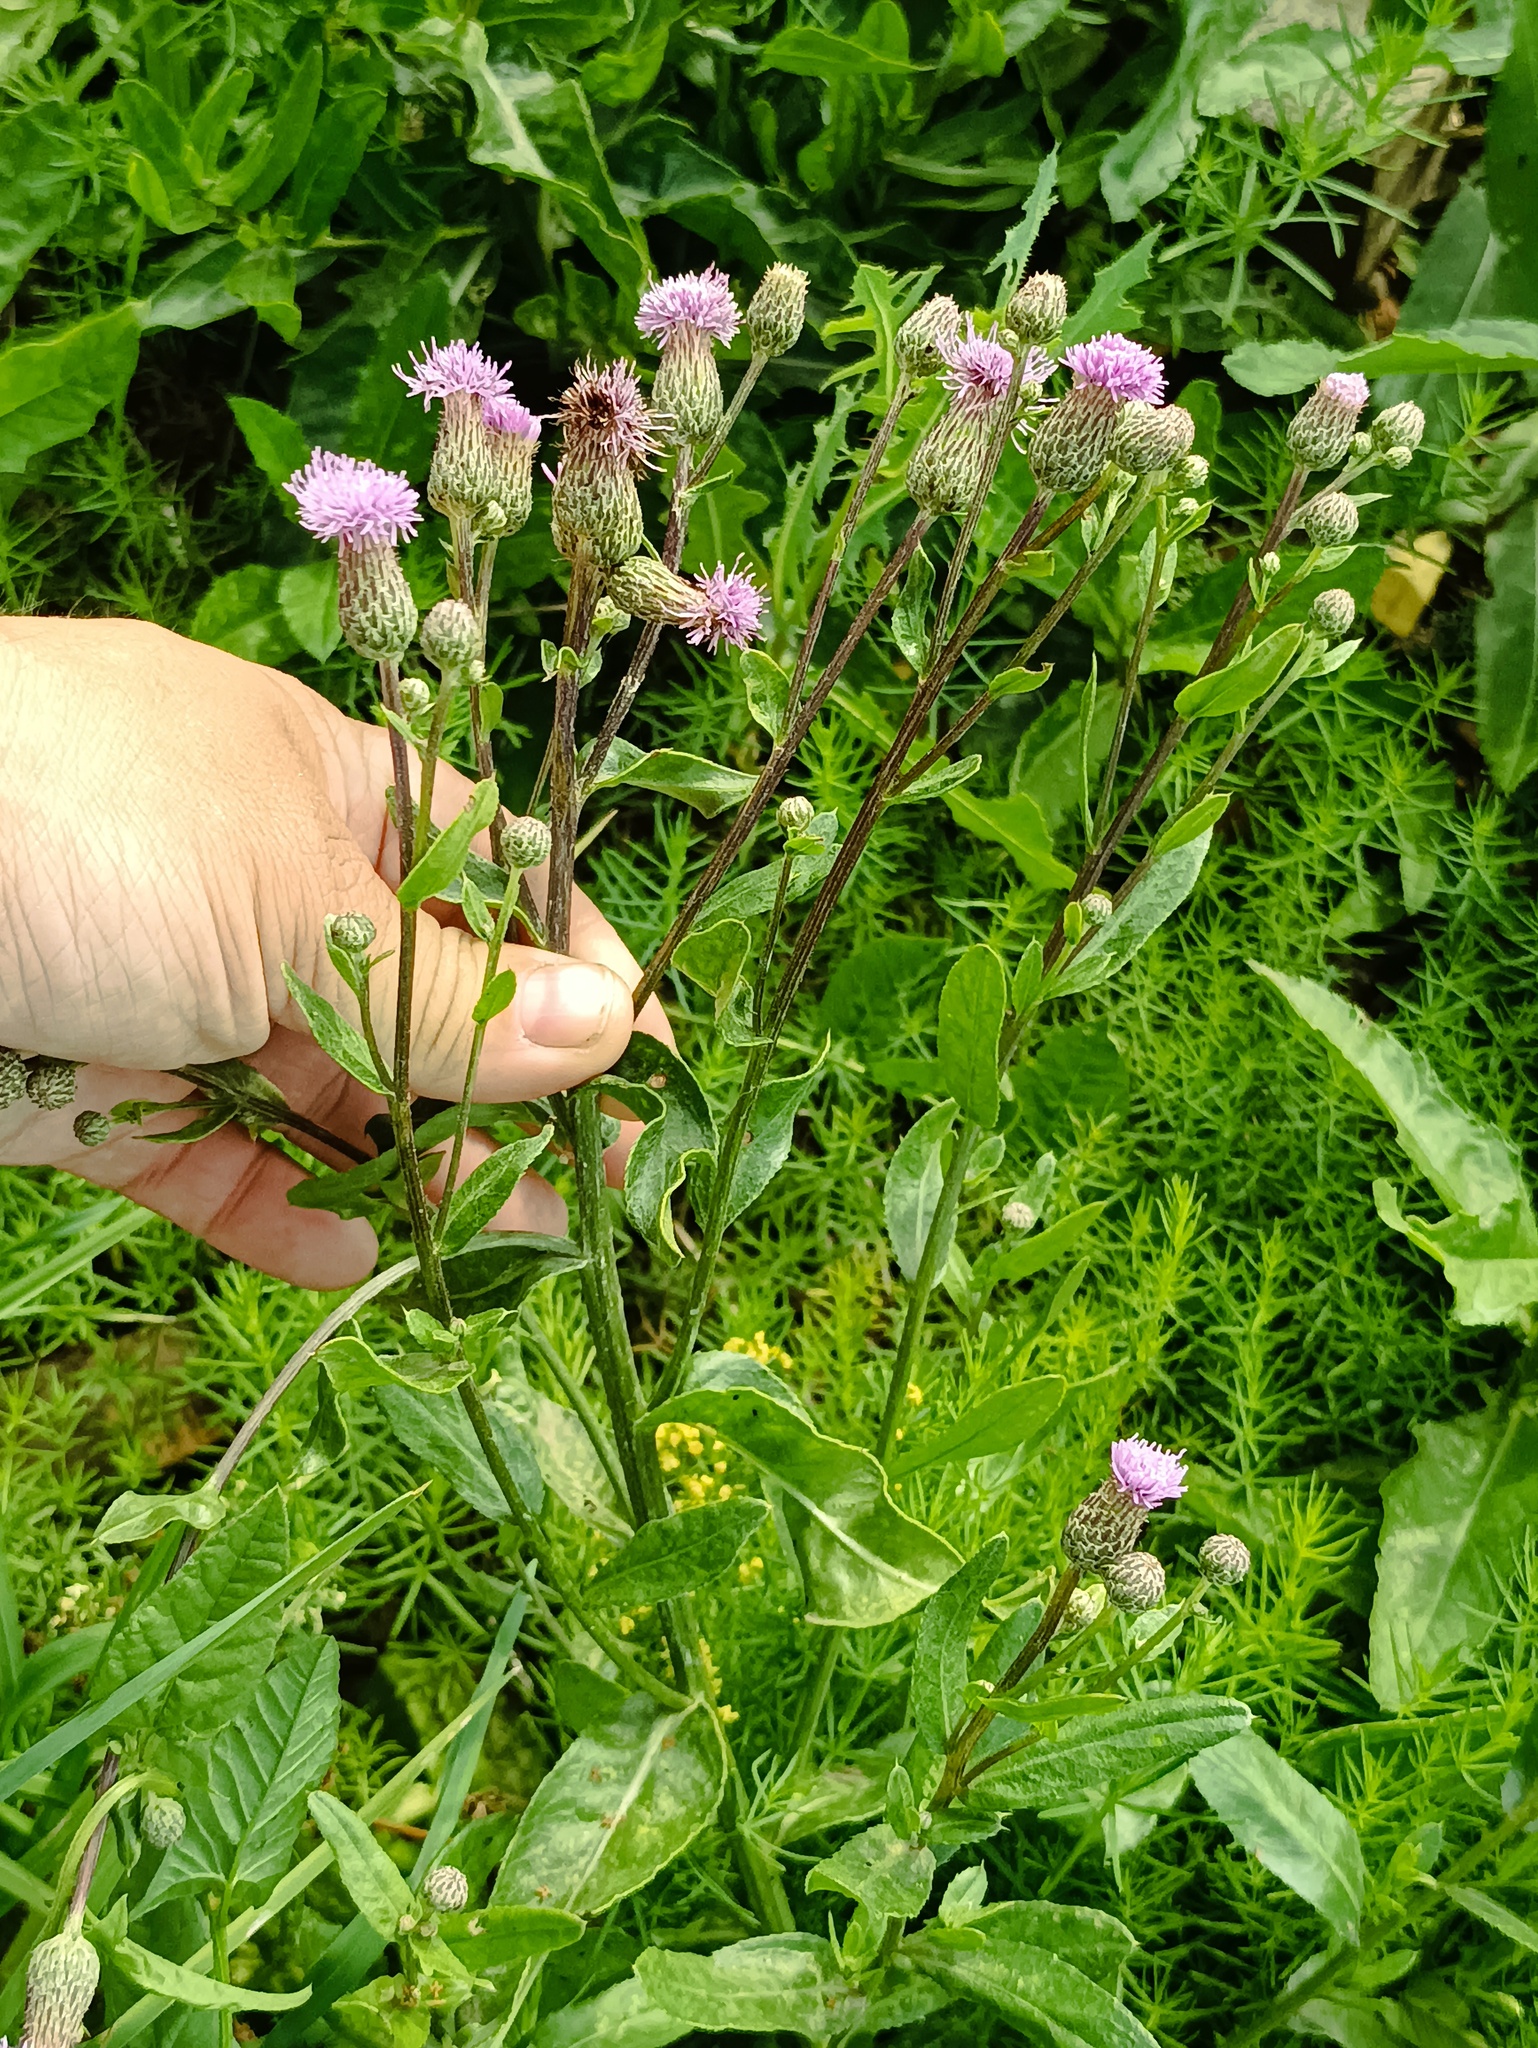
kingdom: Plantae
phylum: Tracheophyta
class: Magnoliopsida
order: Asterales
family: Asteraceae
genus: Cirsium
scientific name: Cirsium arvense
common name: Creeping thistle
